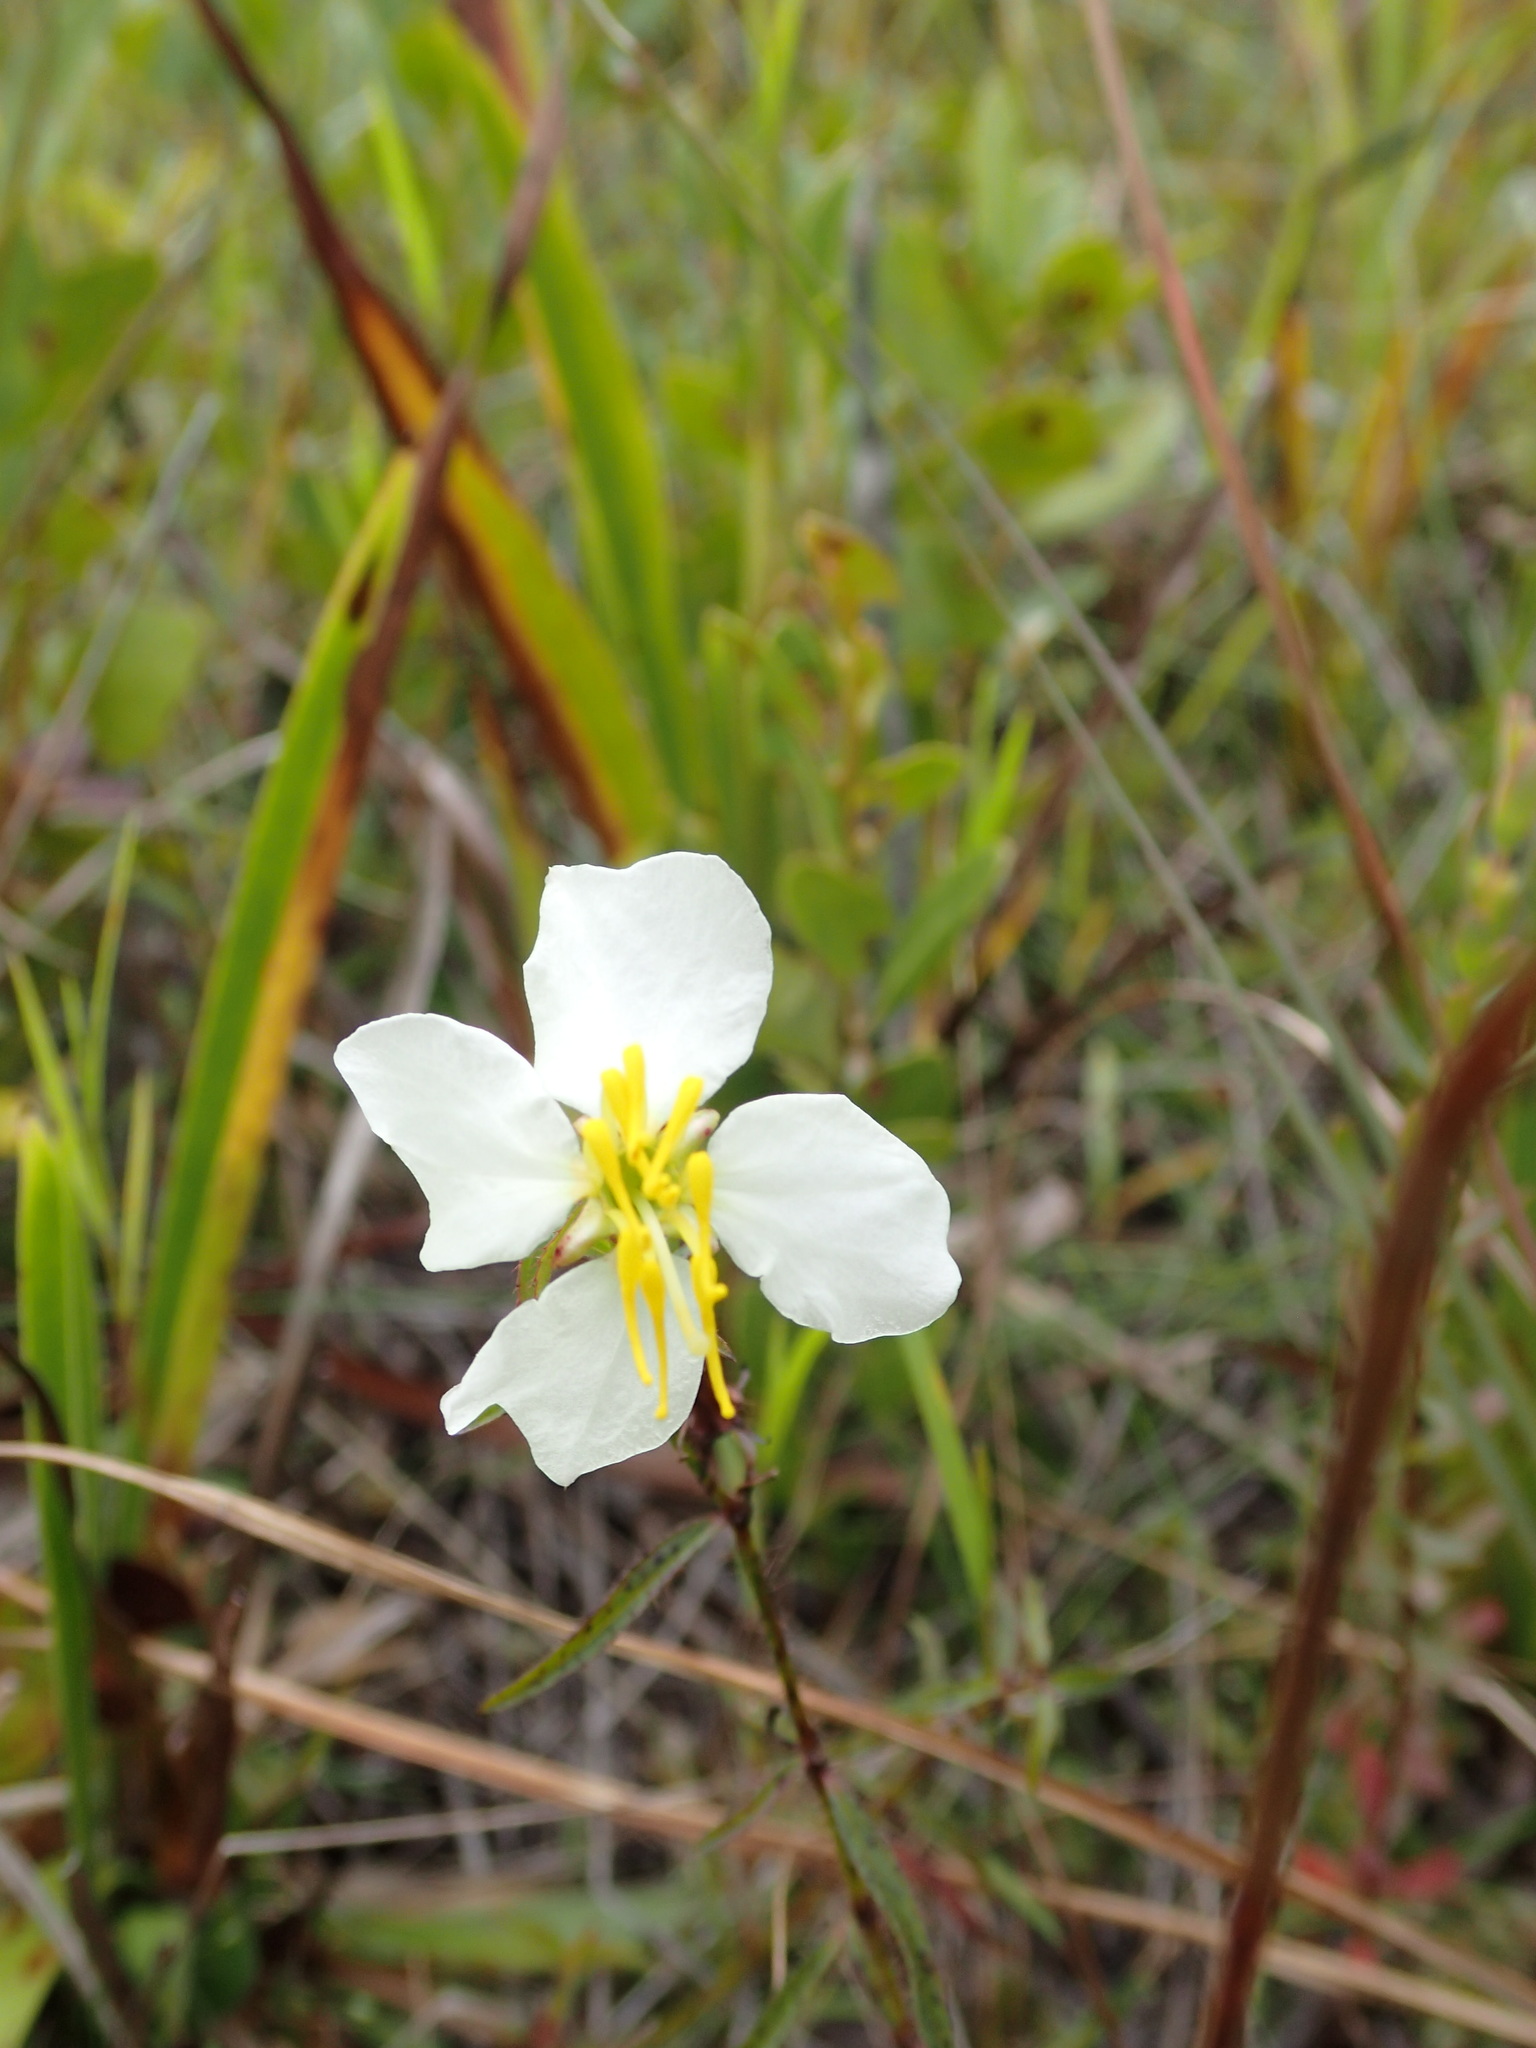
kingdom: Plantae
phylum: Tracheophyta
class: Magnoliopsida
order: Myrtales
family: Melastomataceae
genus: Rhexia
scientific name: Rhexia mariana
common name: Dull meadow-pitcher
